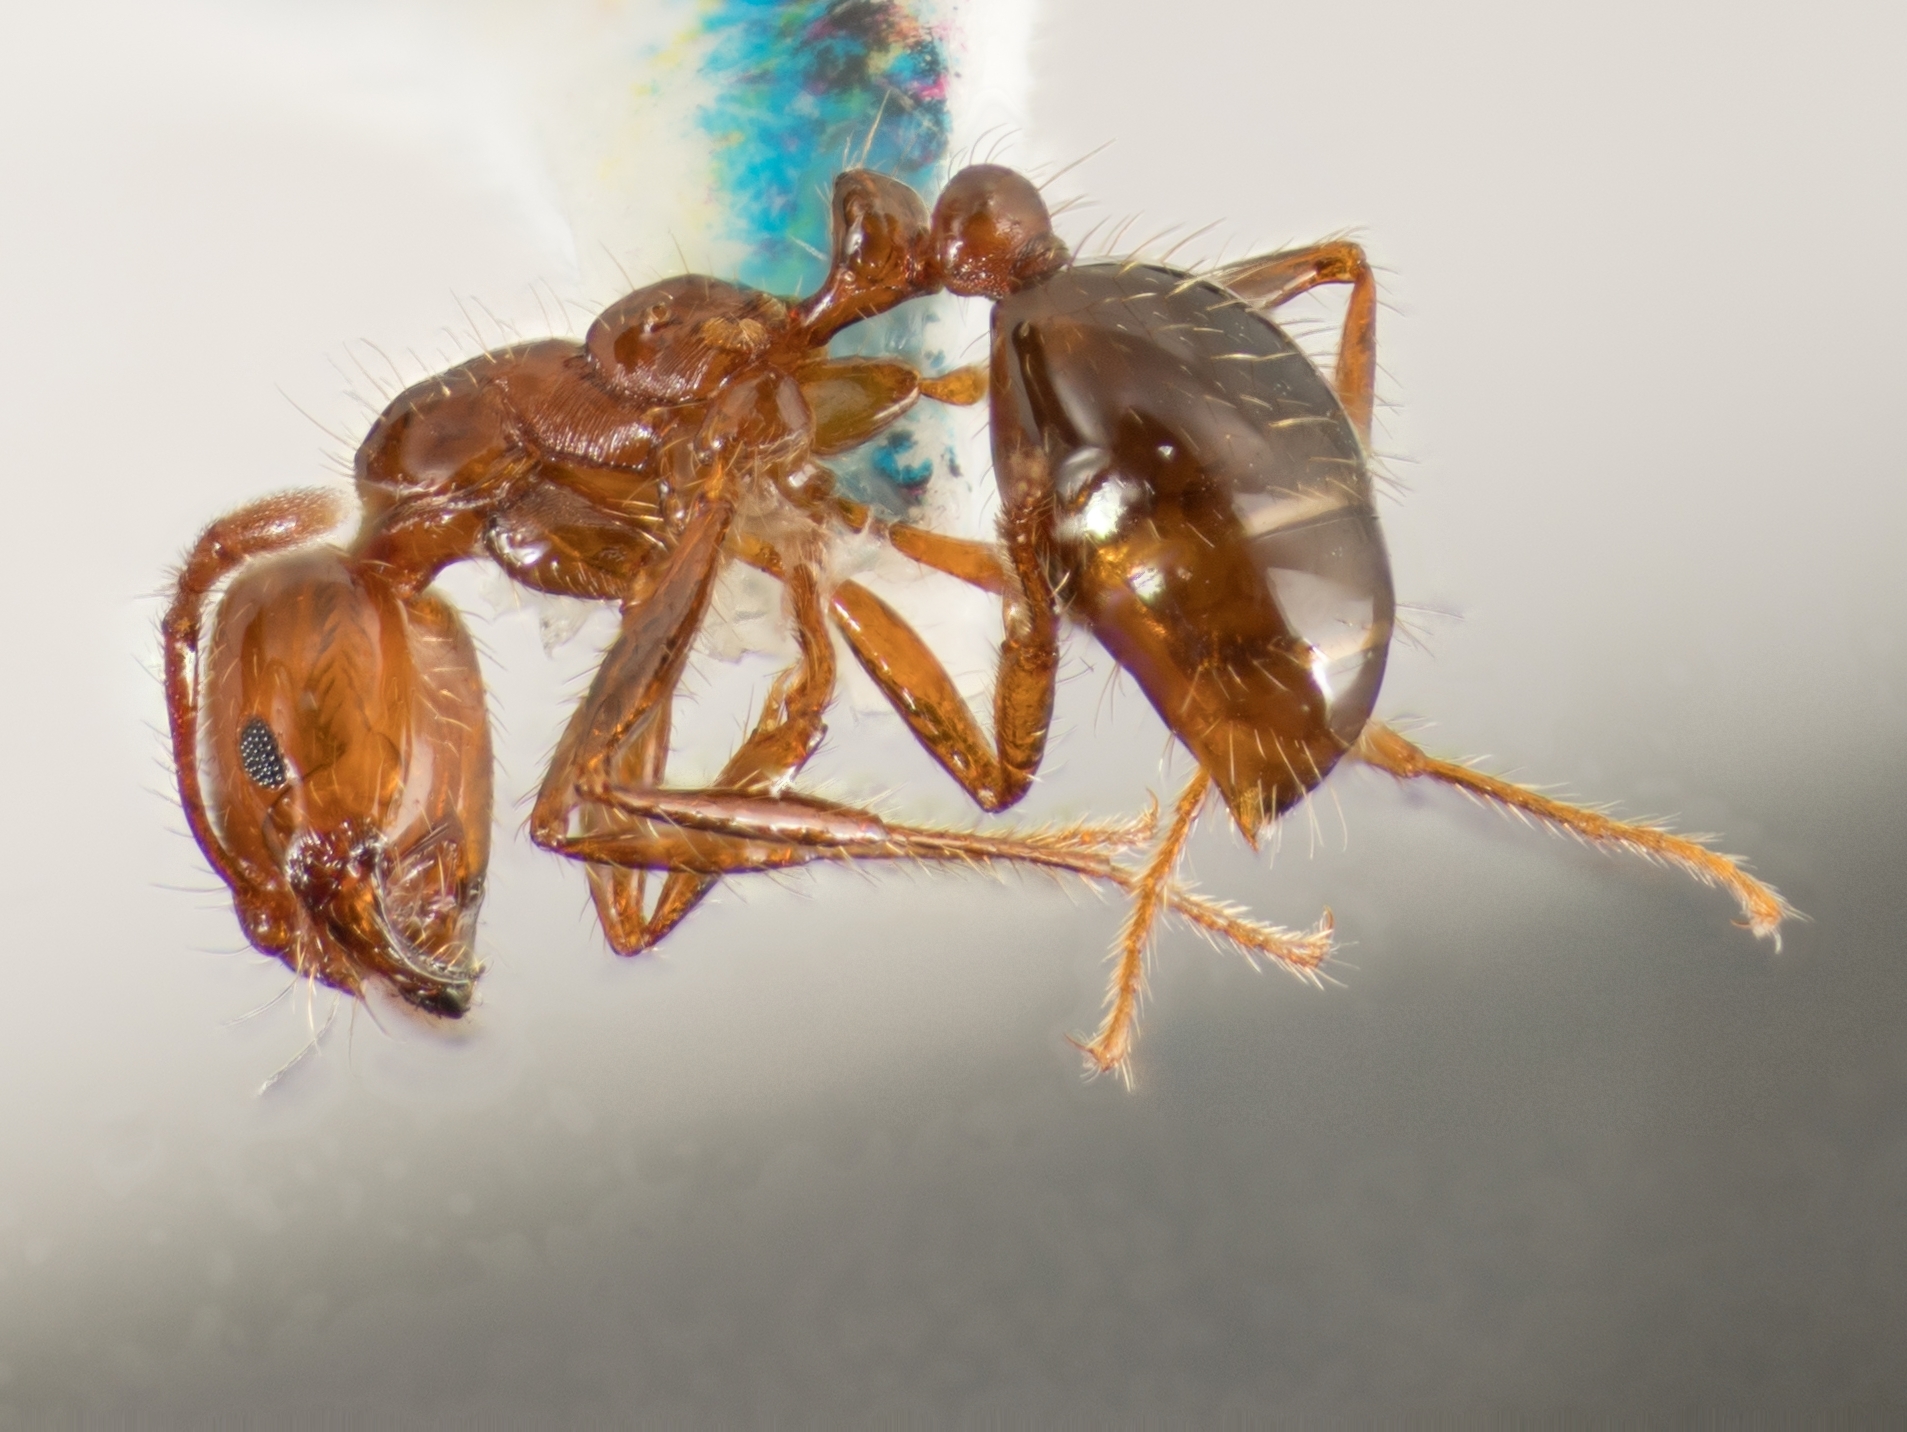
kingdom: Animalia
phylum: Arthropoda
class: Insecta
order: Hymenoptera
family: Formicidae
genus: Solenopsis
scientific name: Solenopsis invicta
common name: Red imported fire ant
